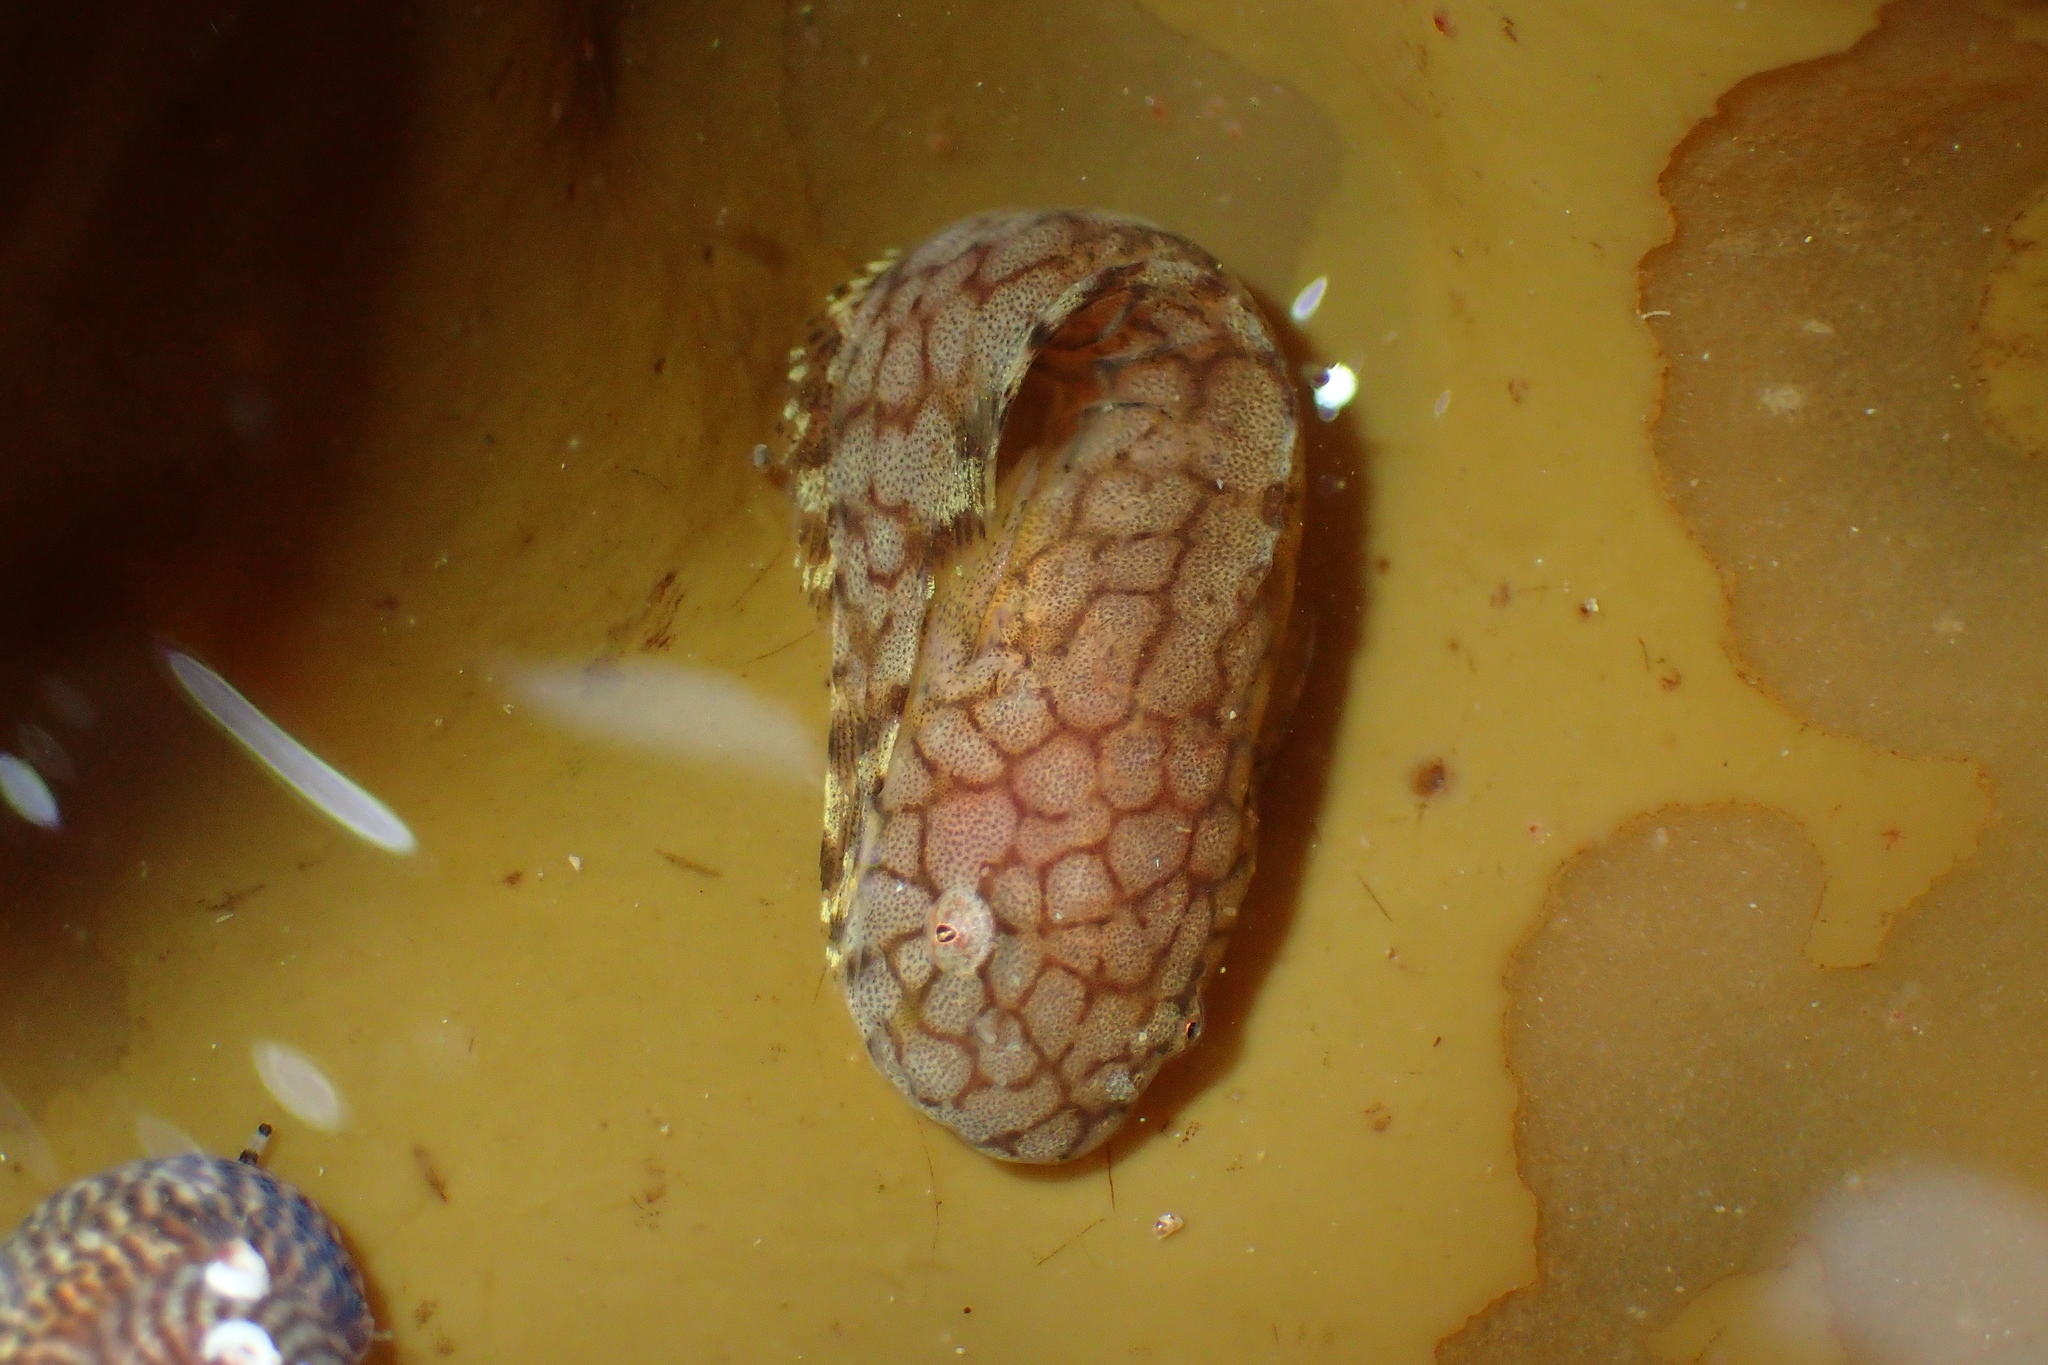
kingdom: Animalia
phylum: Chordata
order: Scorpaeniformes
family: Liparidae
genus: Liparis
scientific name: Liparis montagui
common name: Montagu's sea-snail
